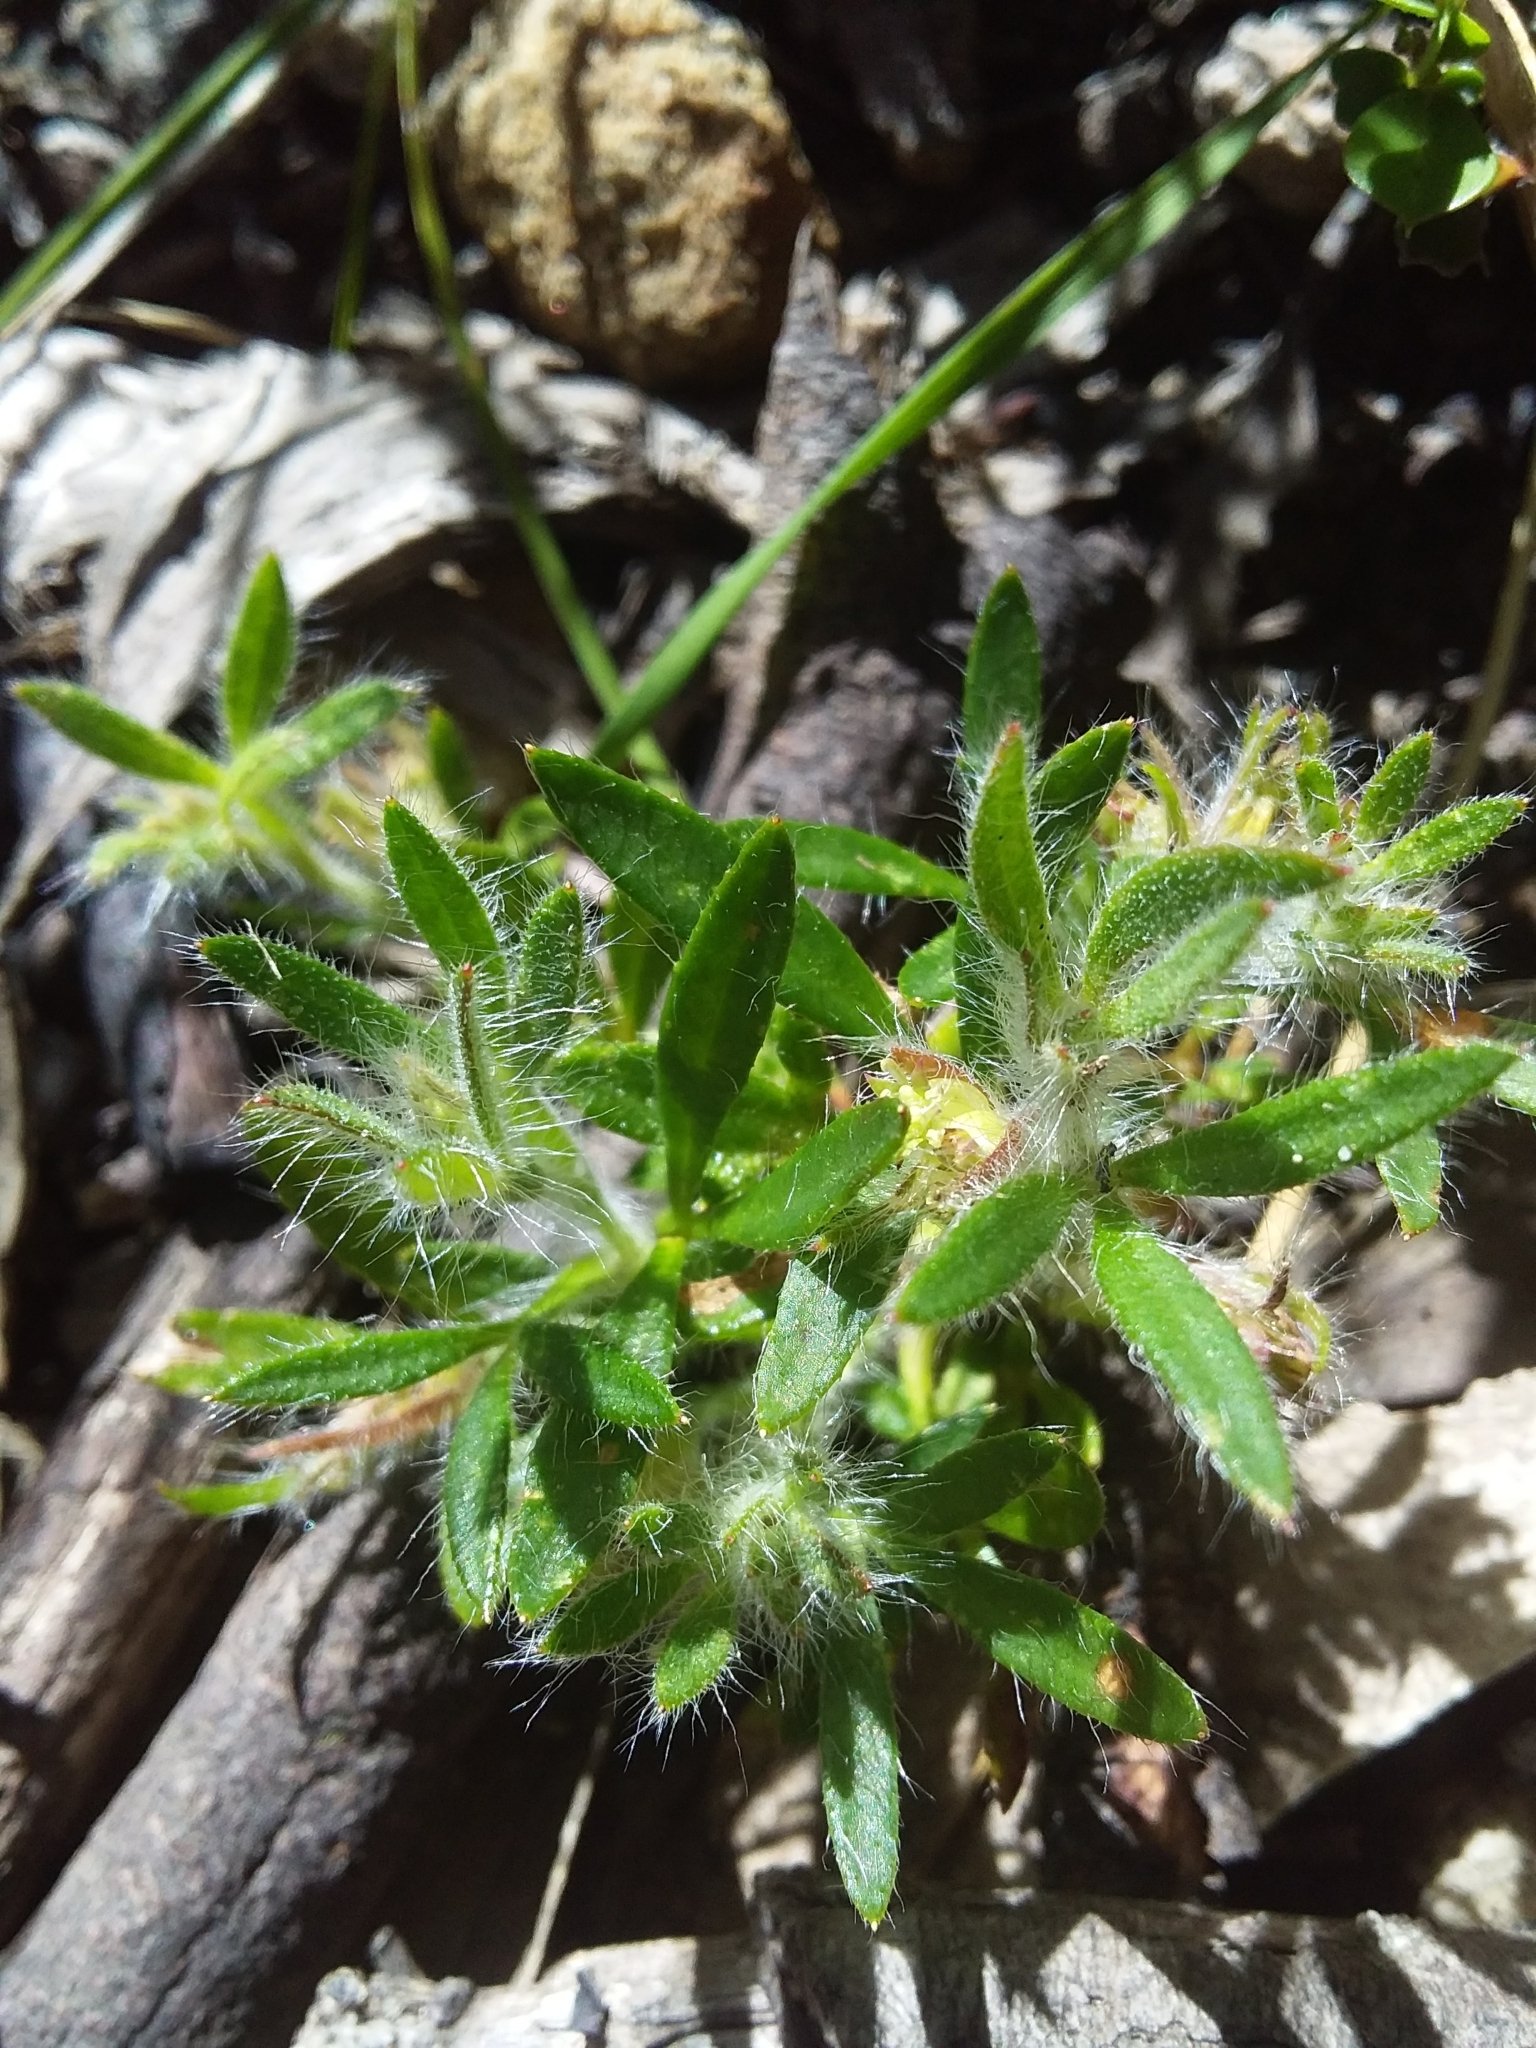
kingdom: Plantae
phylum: Tracheophyta
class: Magnoliopsida
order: Apiales
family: Apiaceae
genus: Xanthosia
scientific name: Xanthosia huegelii
